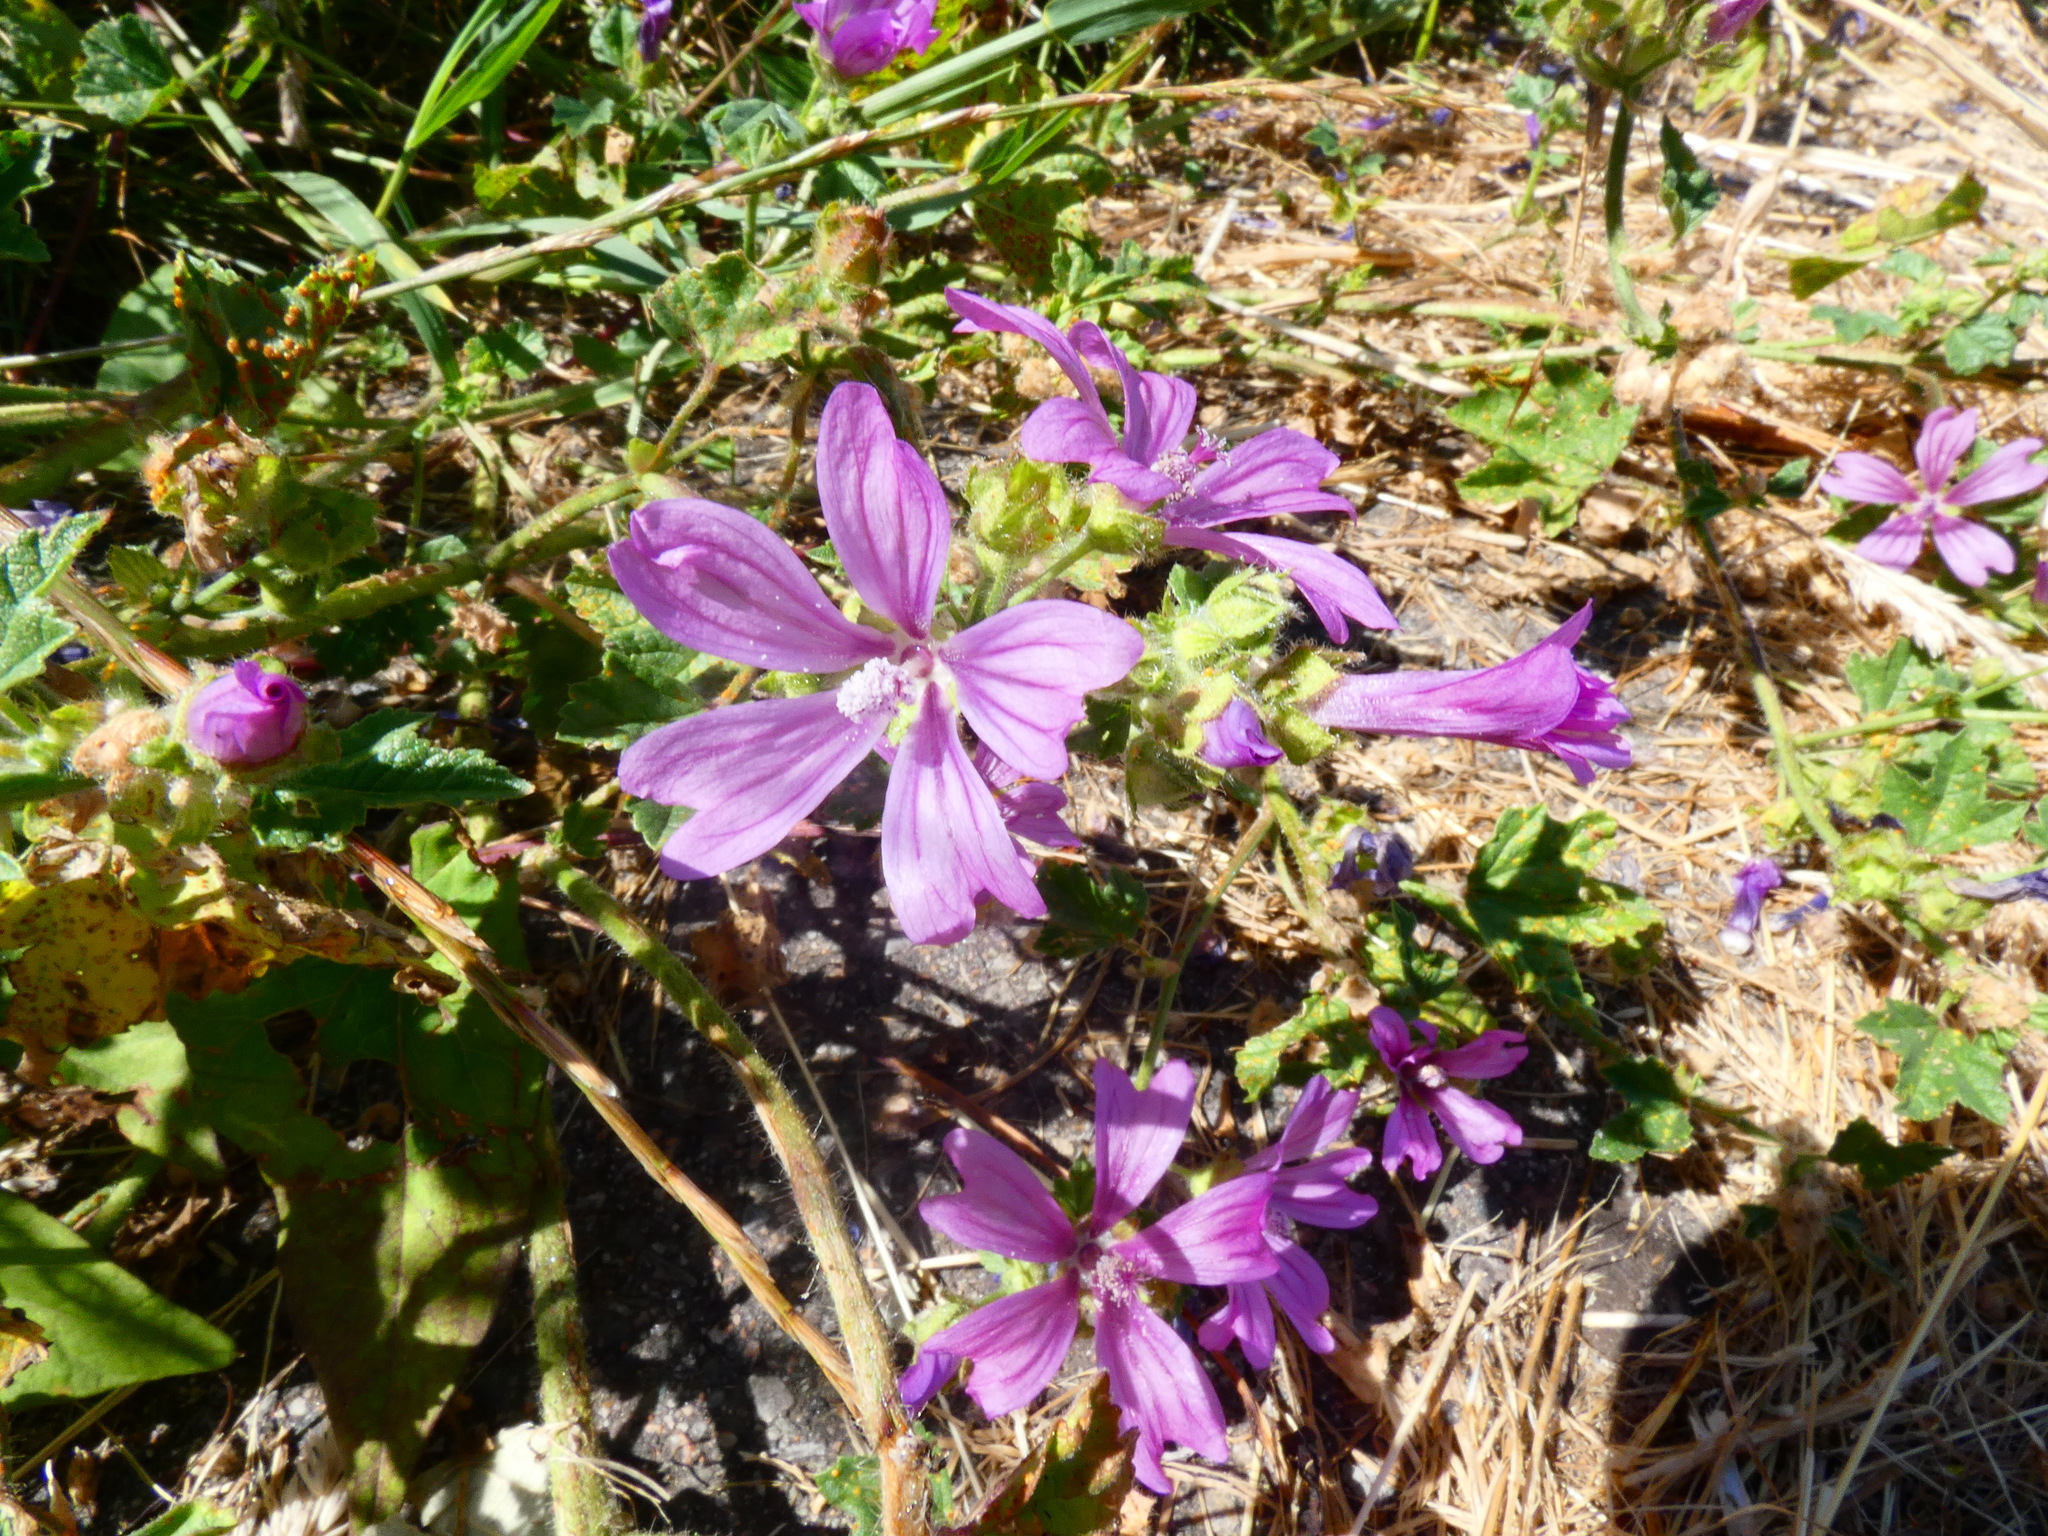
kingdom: Plantae
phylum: Tracheophyta
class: Magnoliopsida
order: Malvales
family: Malvaceae
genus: Malva
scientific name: Malva sylvestris
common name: Common mallow
